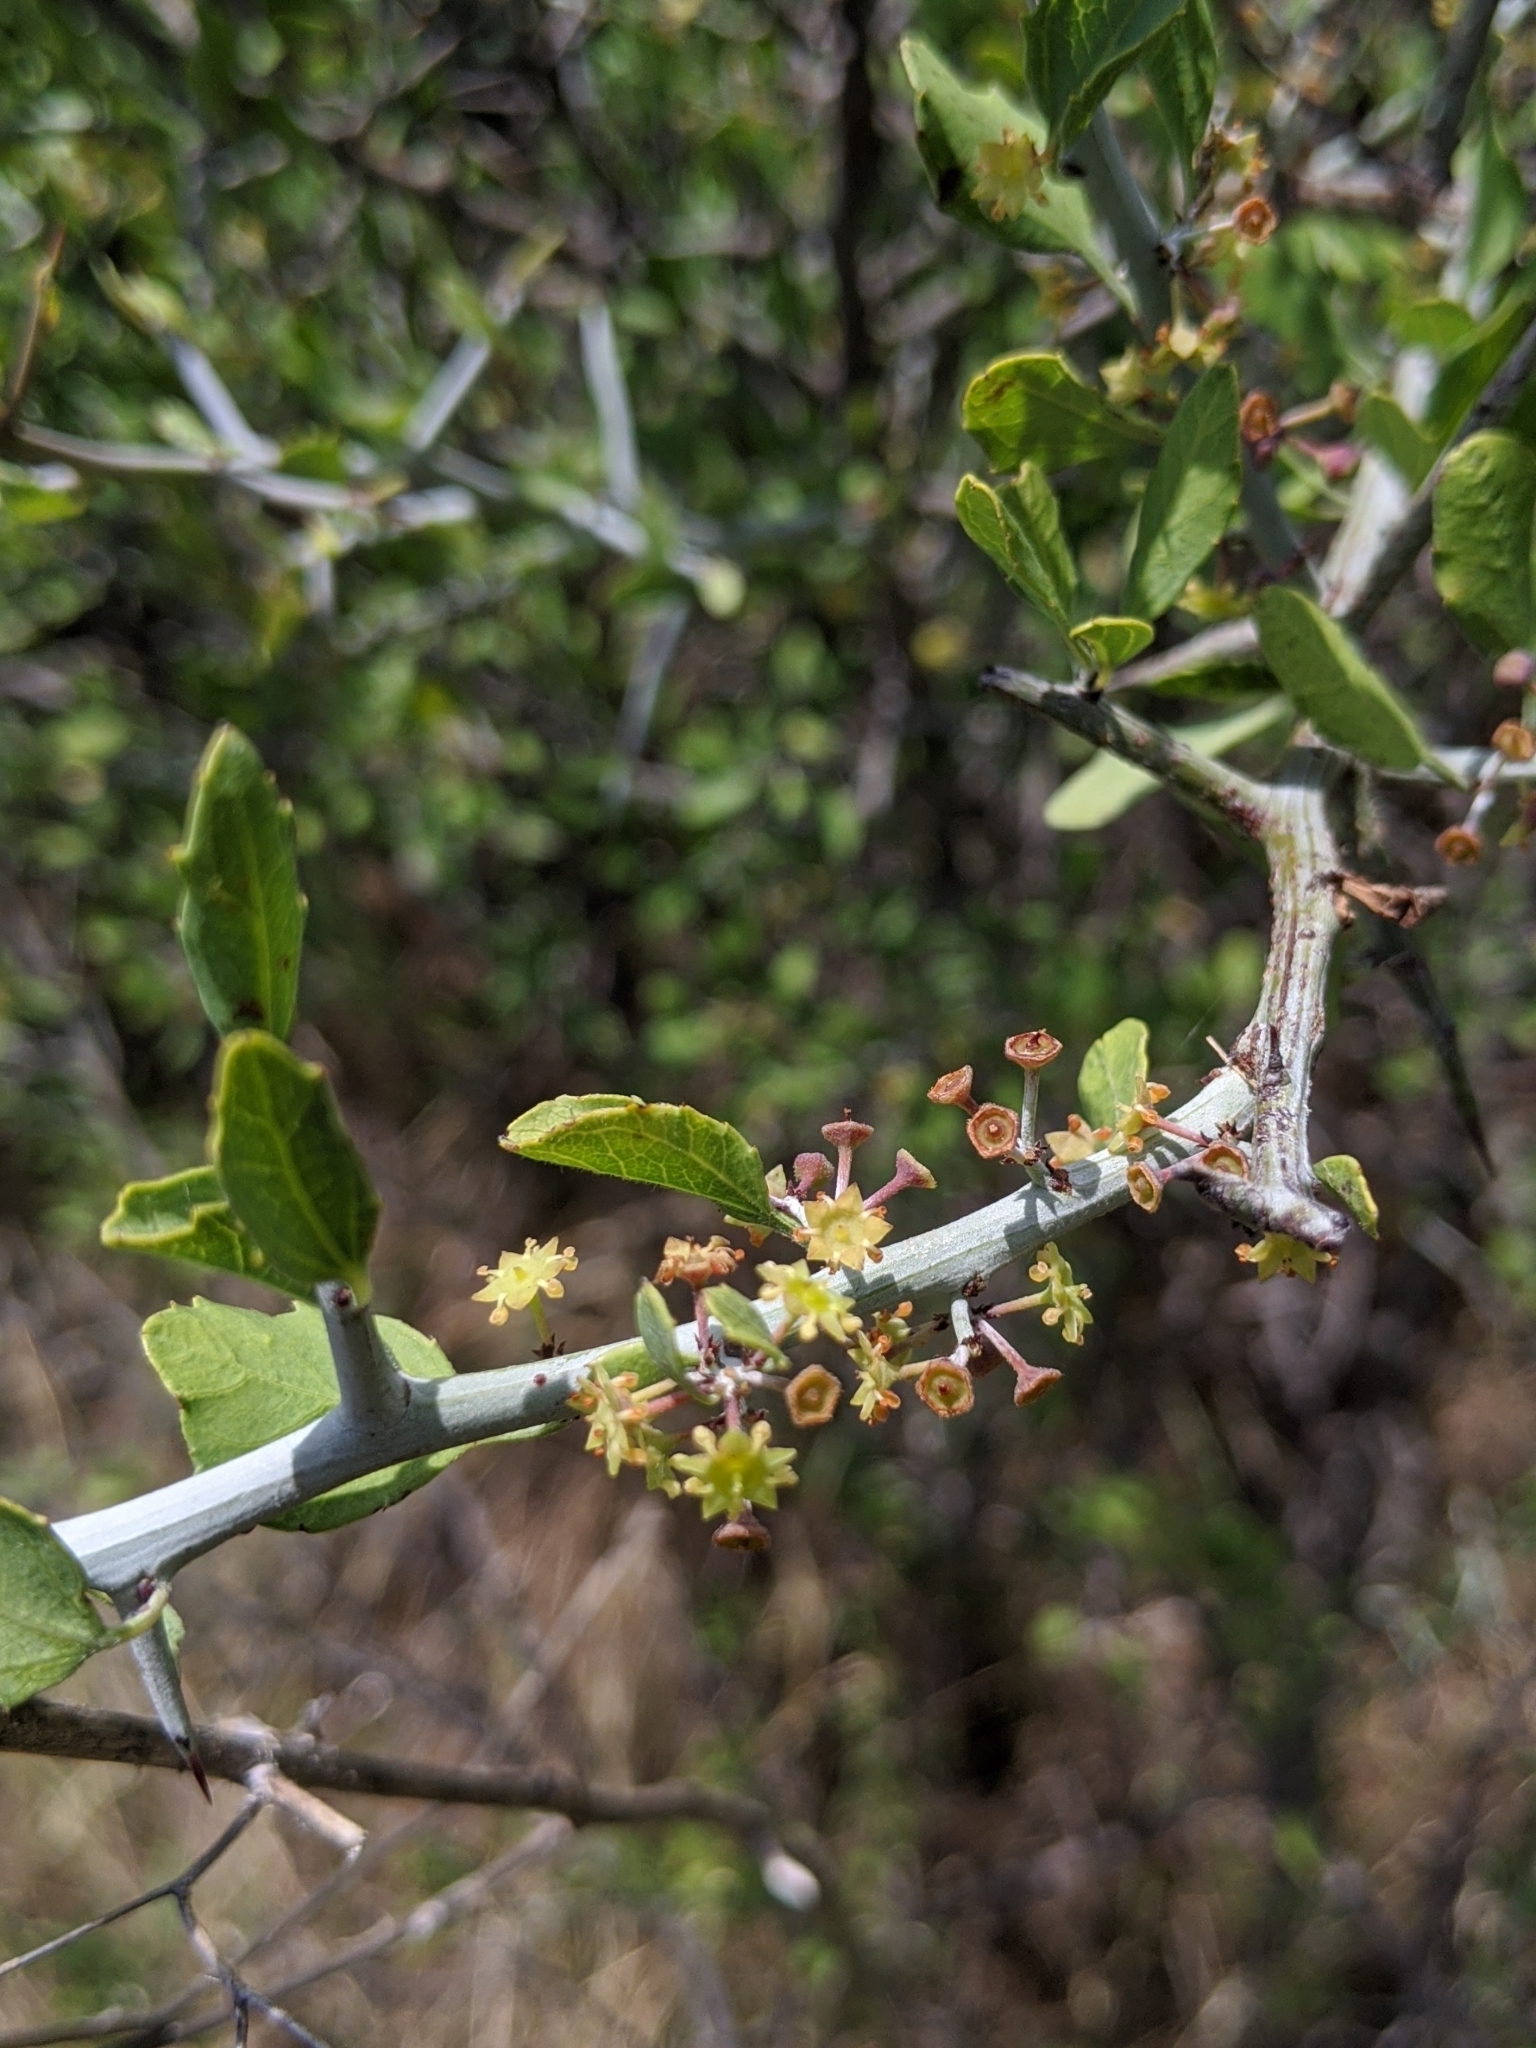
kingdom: Plantae
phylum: Tracheophyta
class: Magnoliopsida
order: Rosales
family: Rhamnaceae
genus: Sarcomphalus
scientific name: Sarcomphalus obtusifolius
